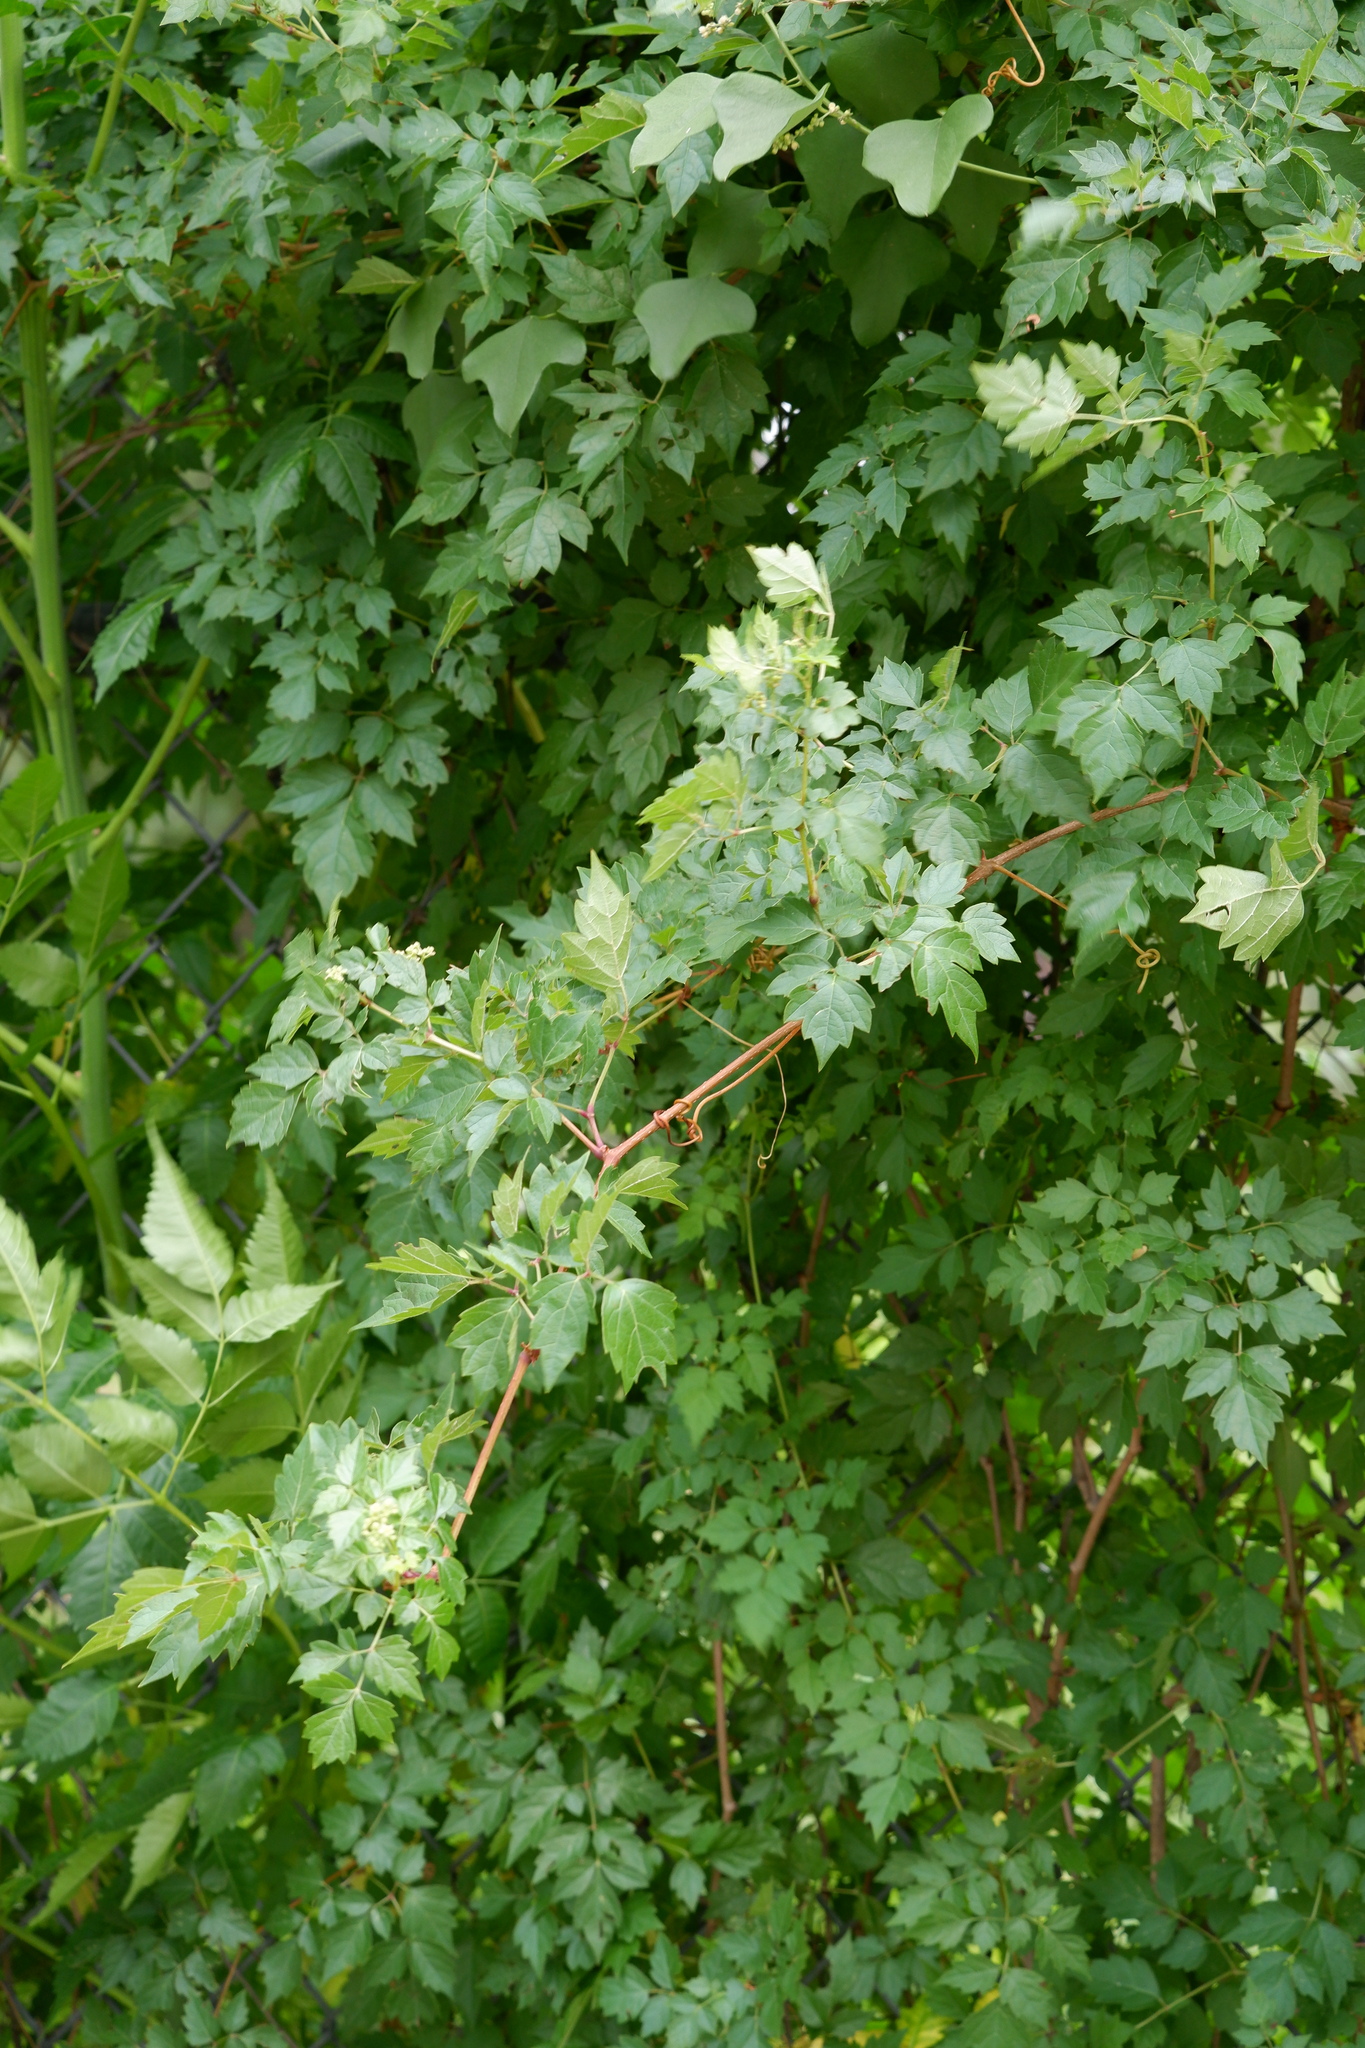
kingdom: Plantae
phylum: Tracheophyta
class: Magnoliopsida
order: Vitales
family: Vitaceae
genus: Nekemias
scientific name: Nekemias arborea
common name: Peppervine
